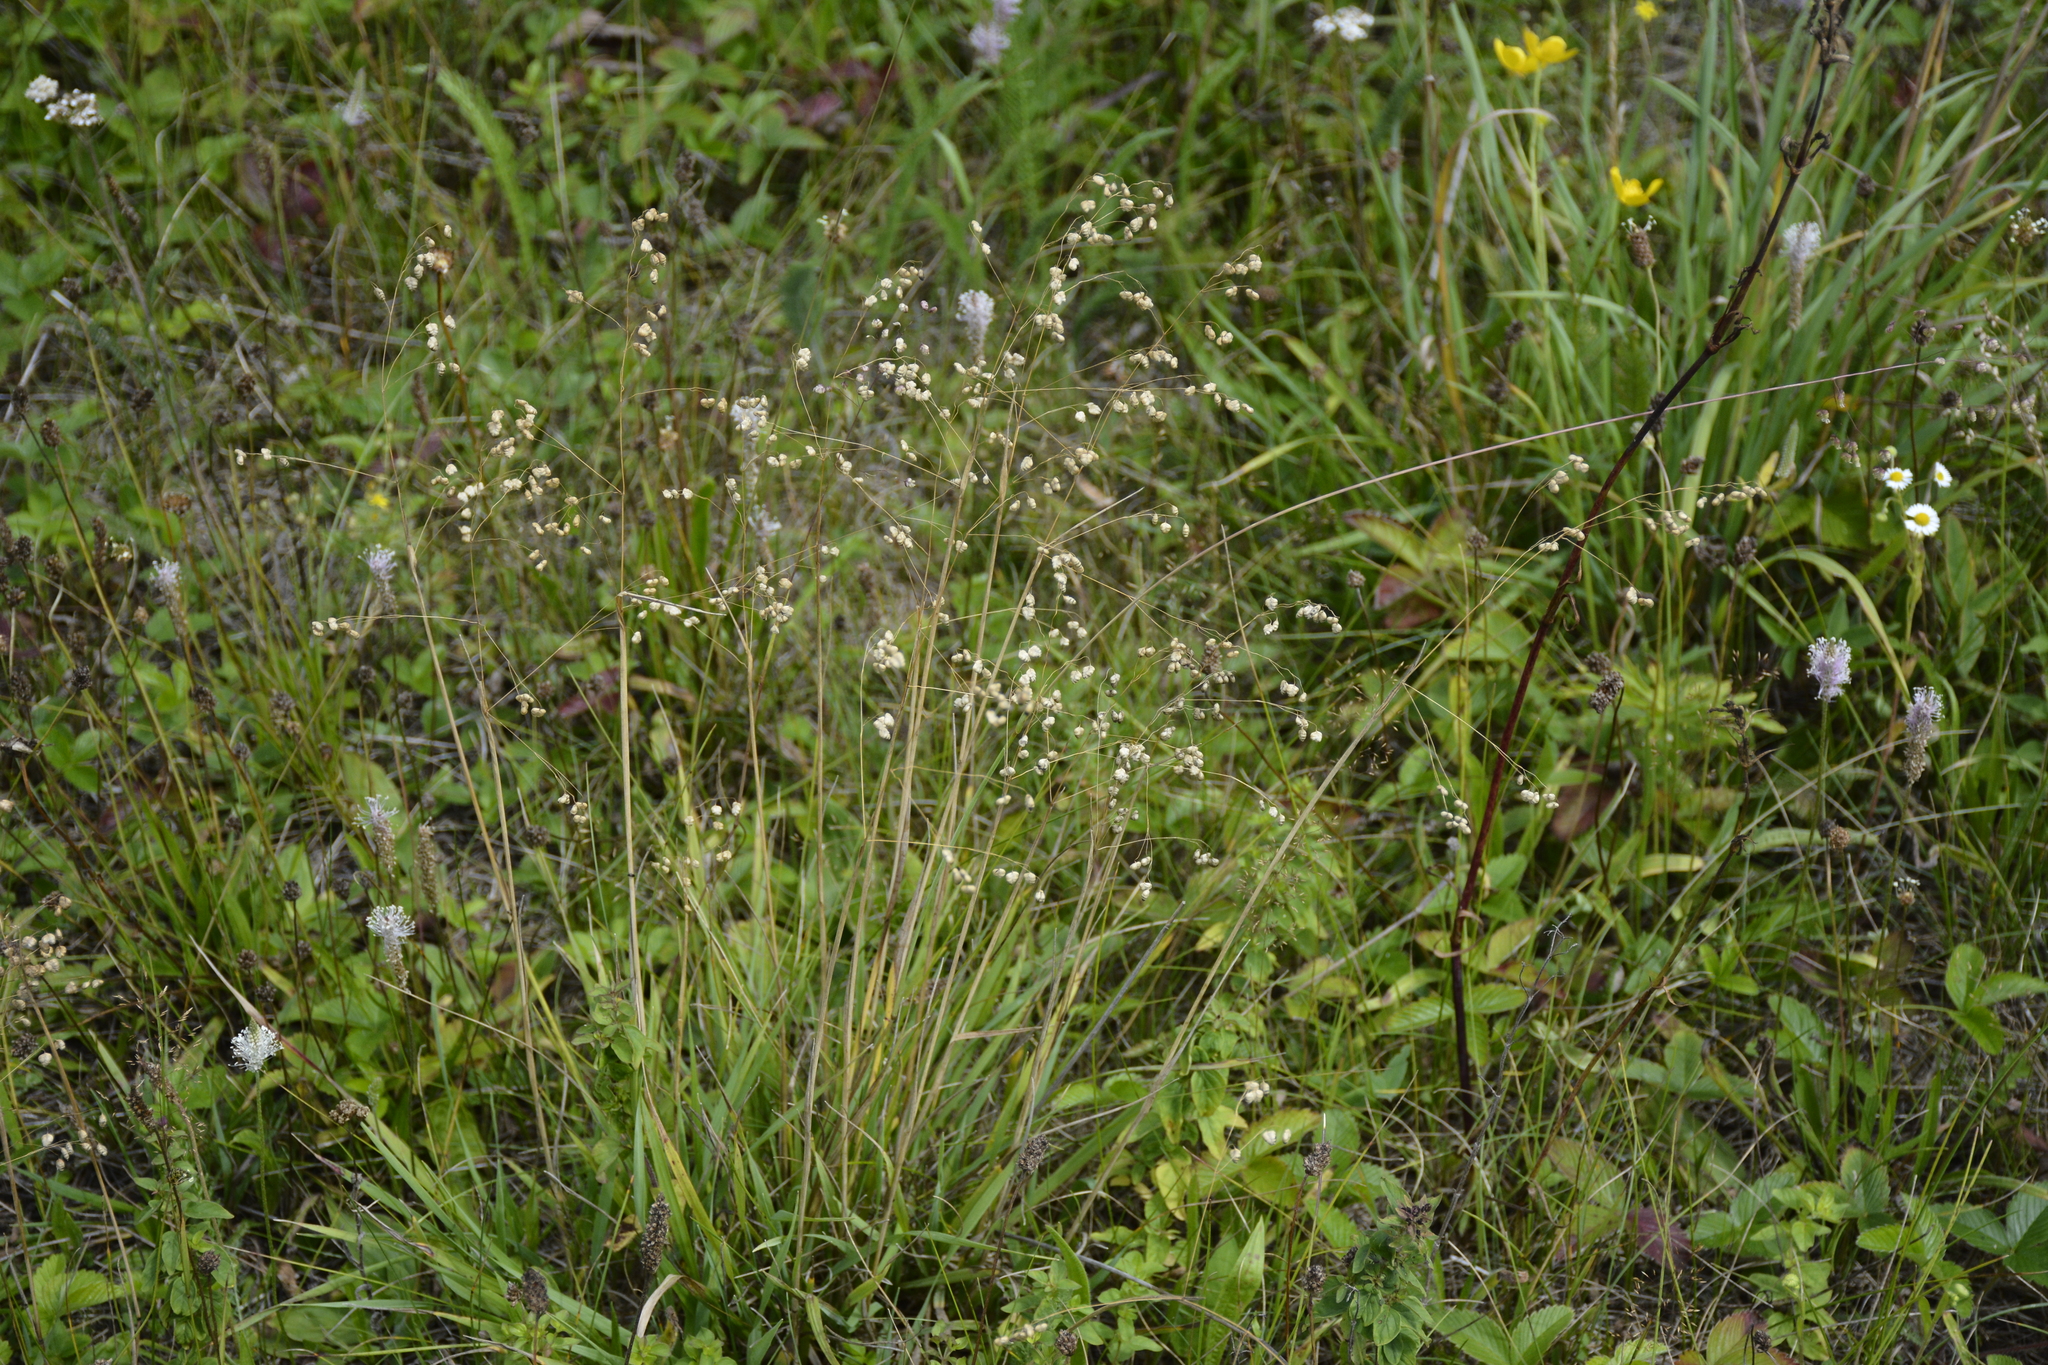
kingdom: Plantae
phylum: Tracheophyta
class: Liliopsida
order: Poales
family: Poaceae
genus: Briza
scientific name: Briza media
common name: Quaking grass
